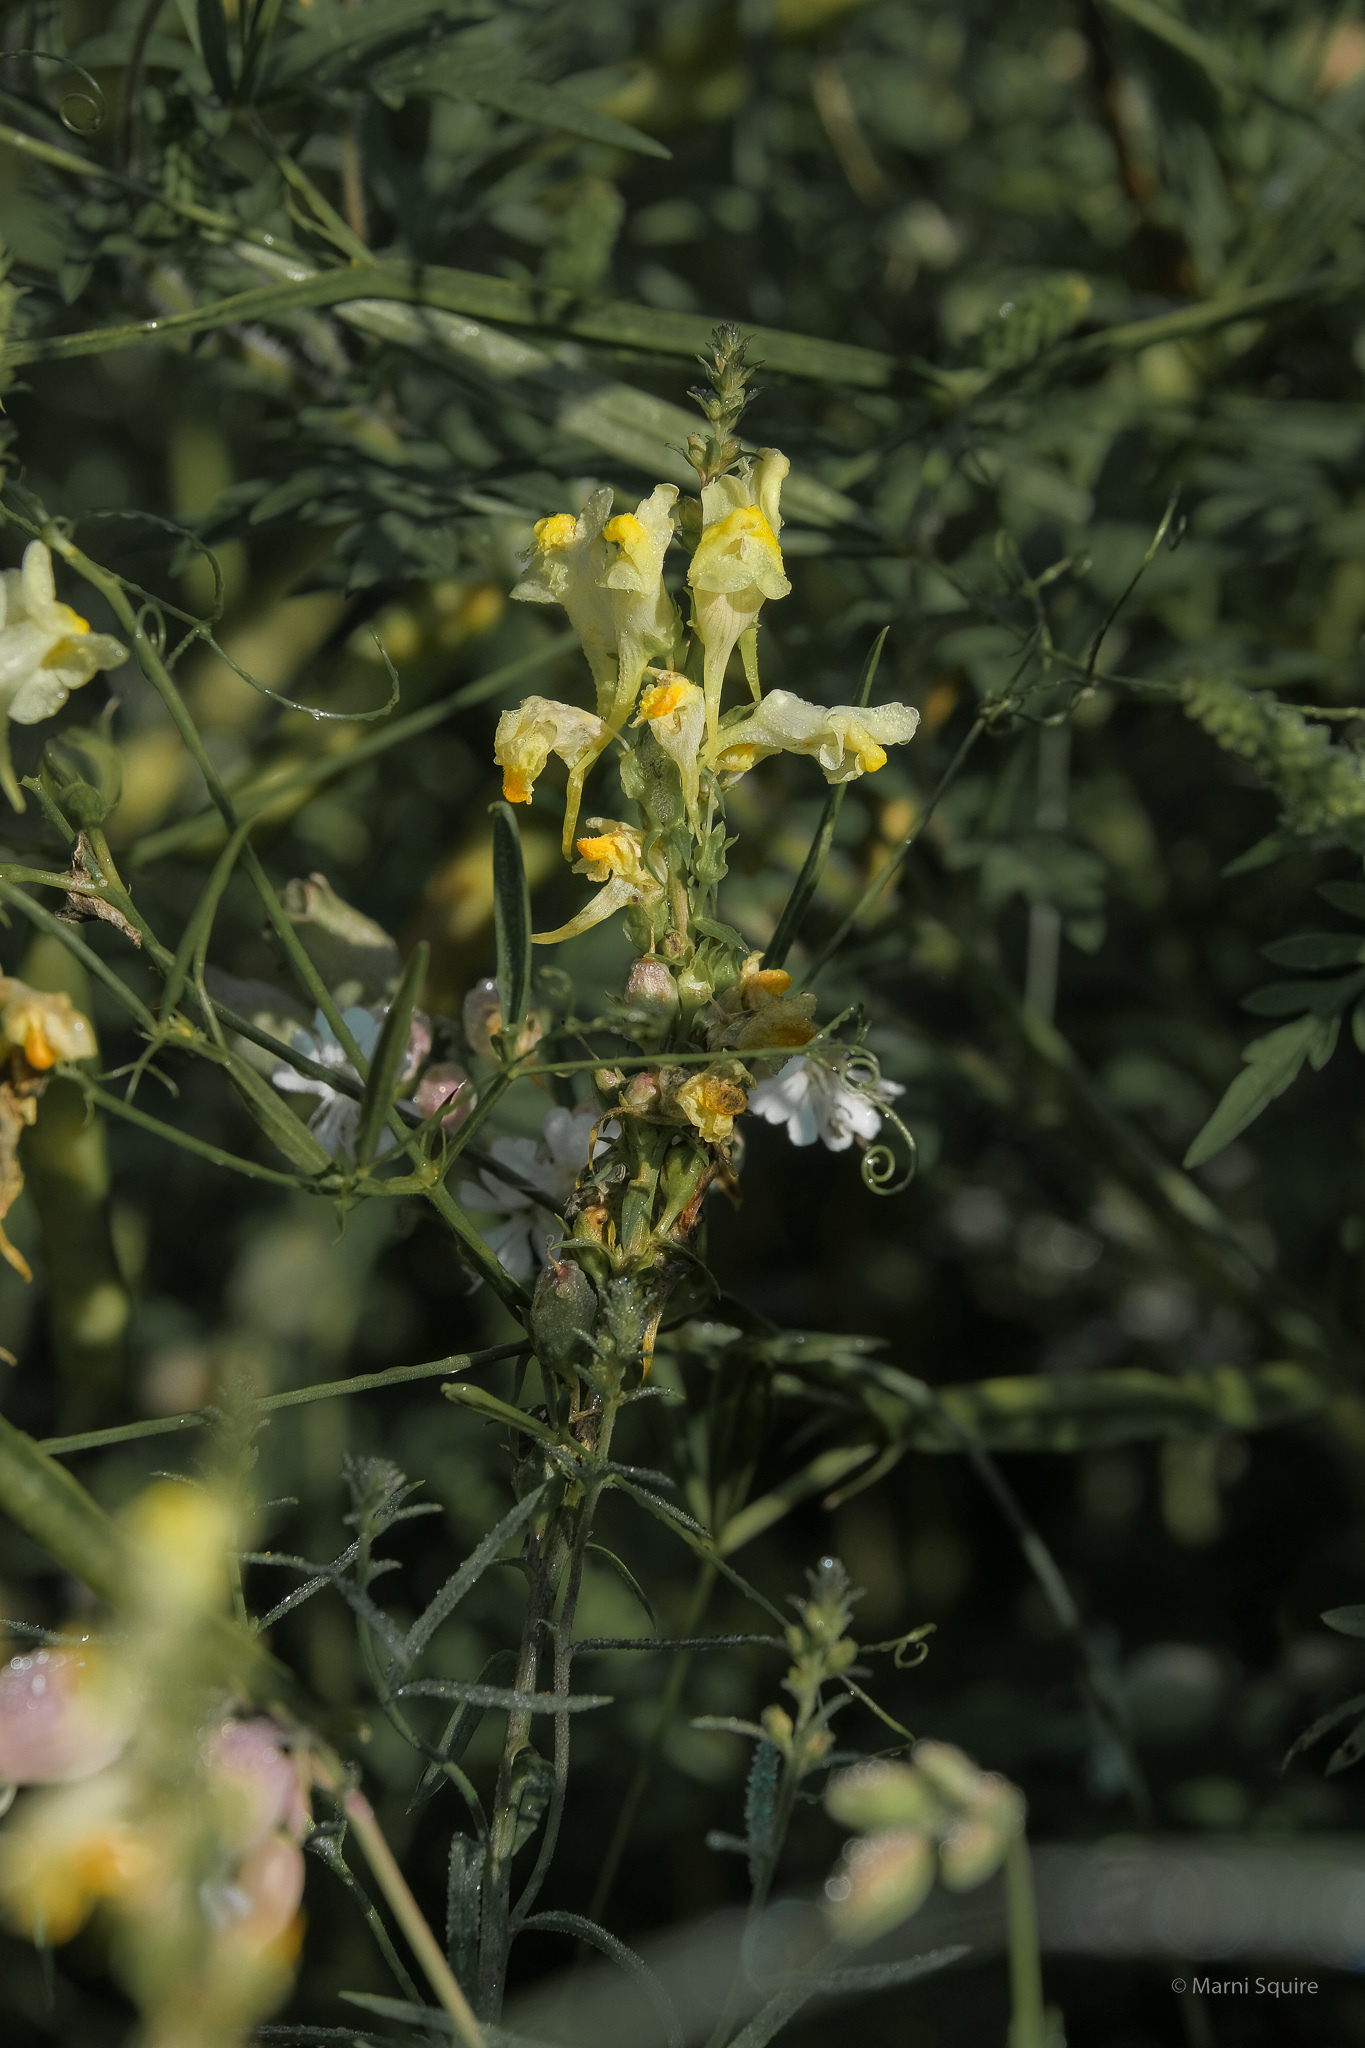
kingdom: Plantae
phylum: Tracheophyta
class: Magnoliopsida
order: Lamiales
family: Plantaginaceae
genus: Linaria
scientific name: Linaria vulgaris
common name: Butter and eggs
